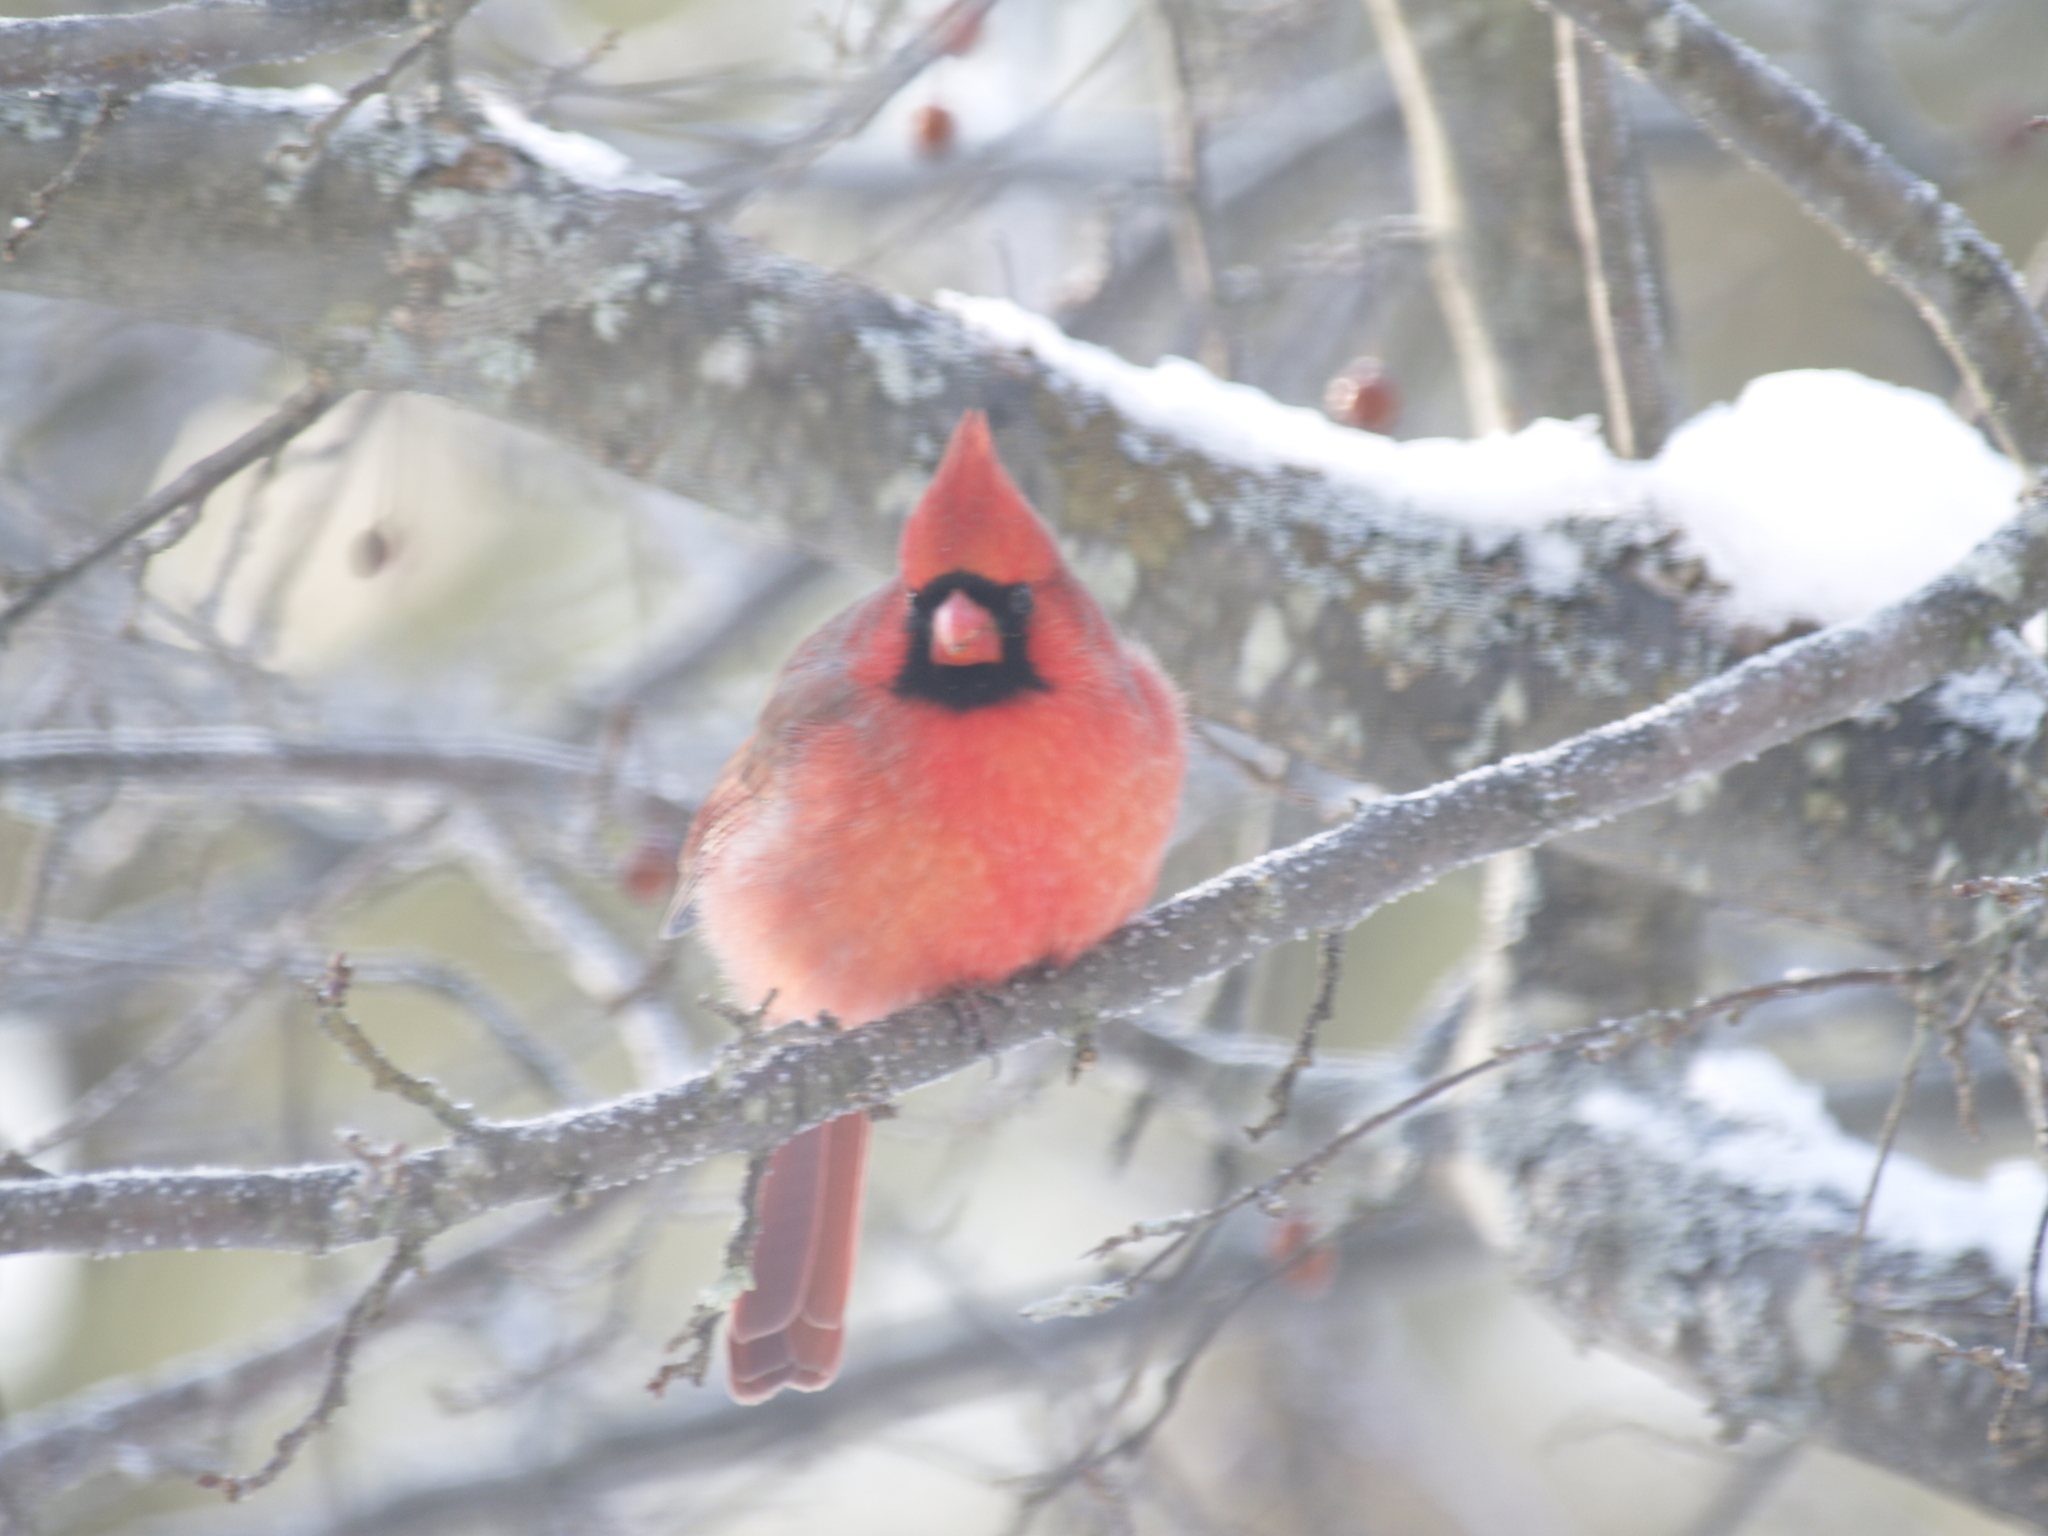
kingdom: Animalia
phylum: Chordata
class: Aves
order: Passeriformes
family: Cardinalidae
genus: Cardinalis
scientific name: Cardinalis cardinalis
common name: Northern cardinal
